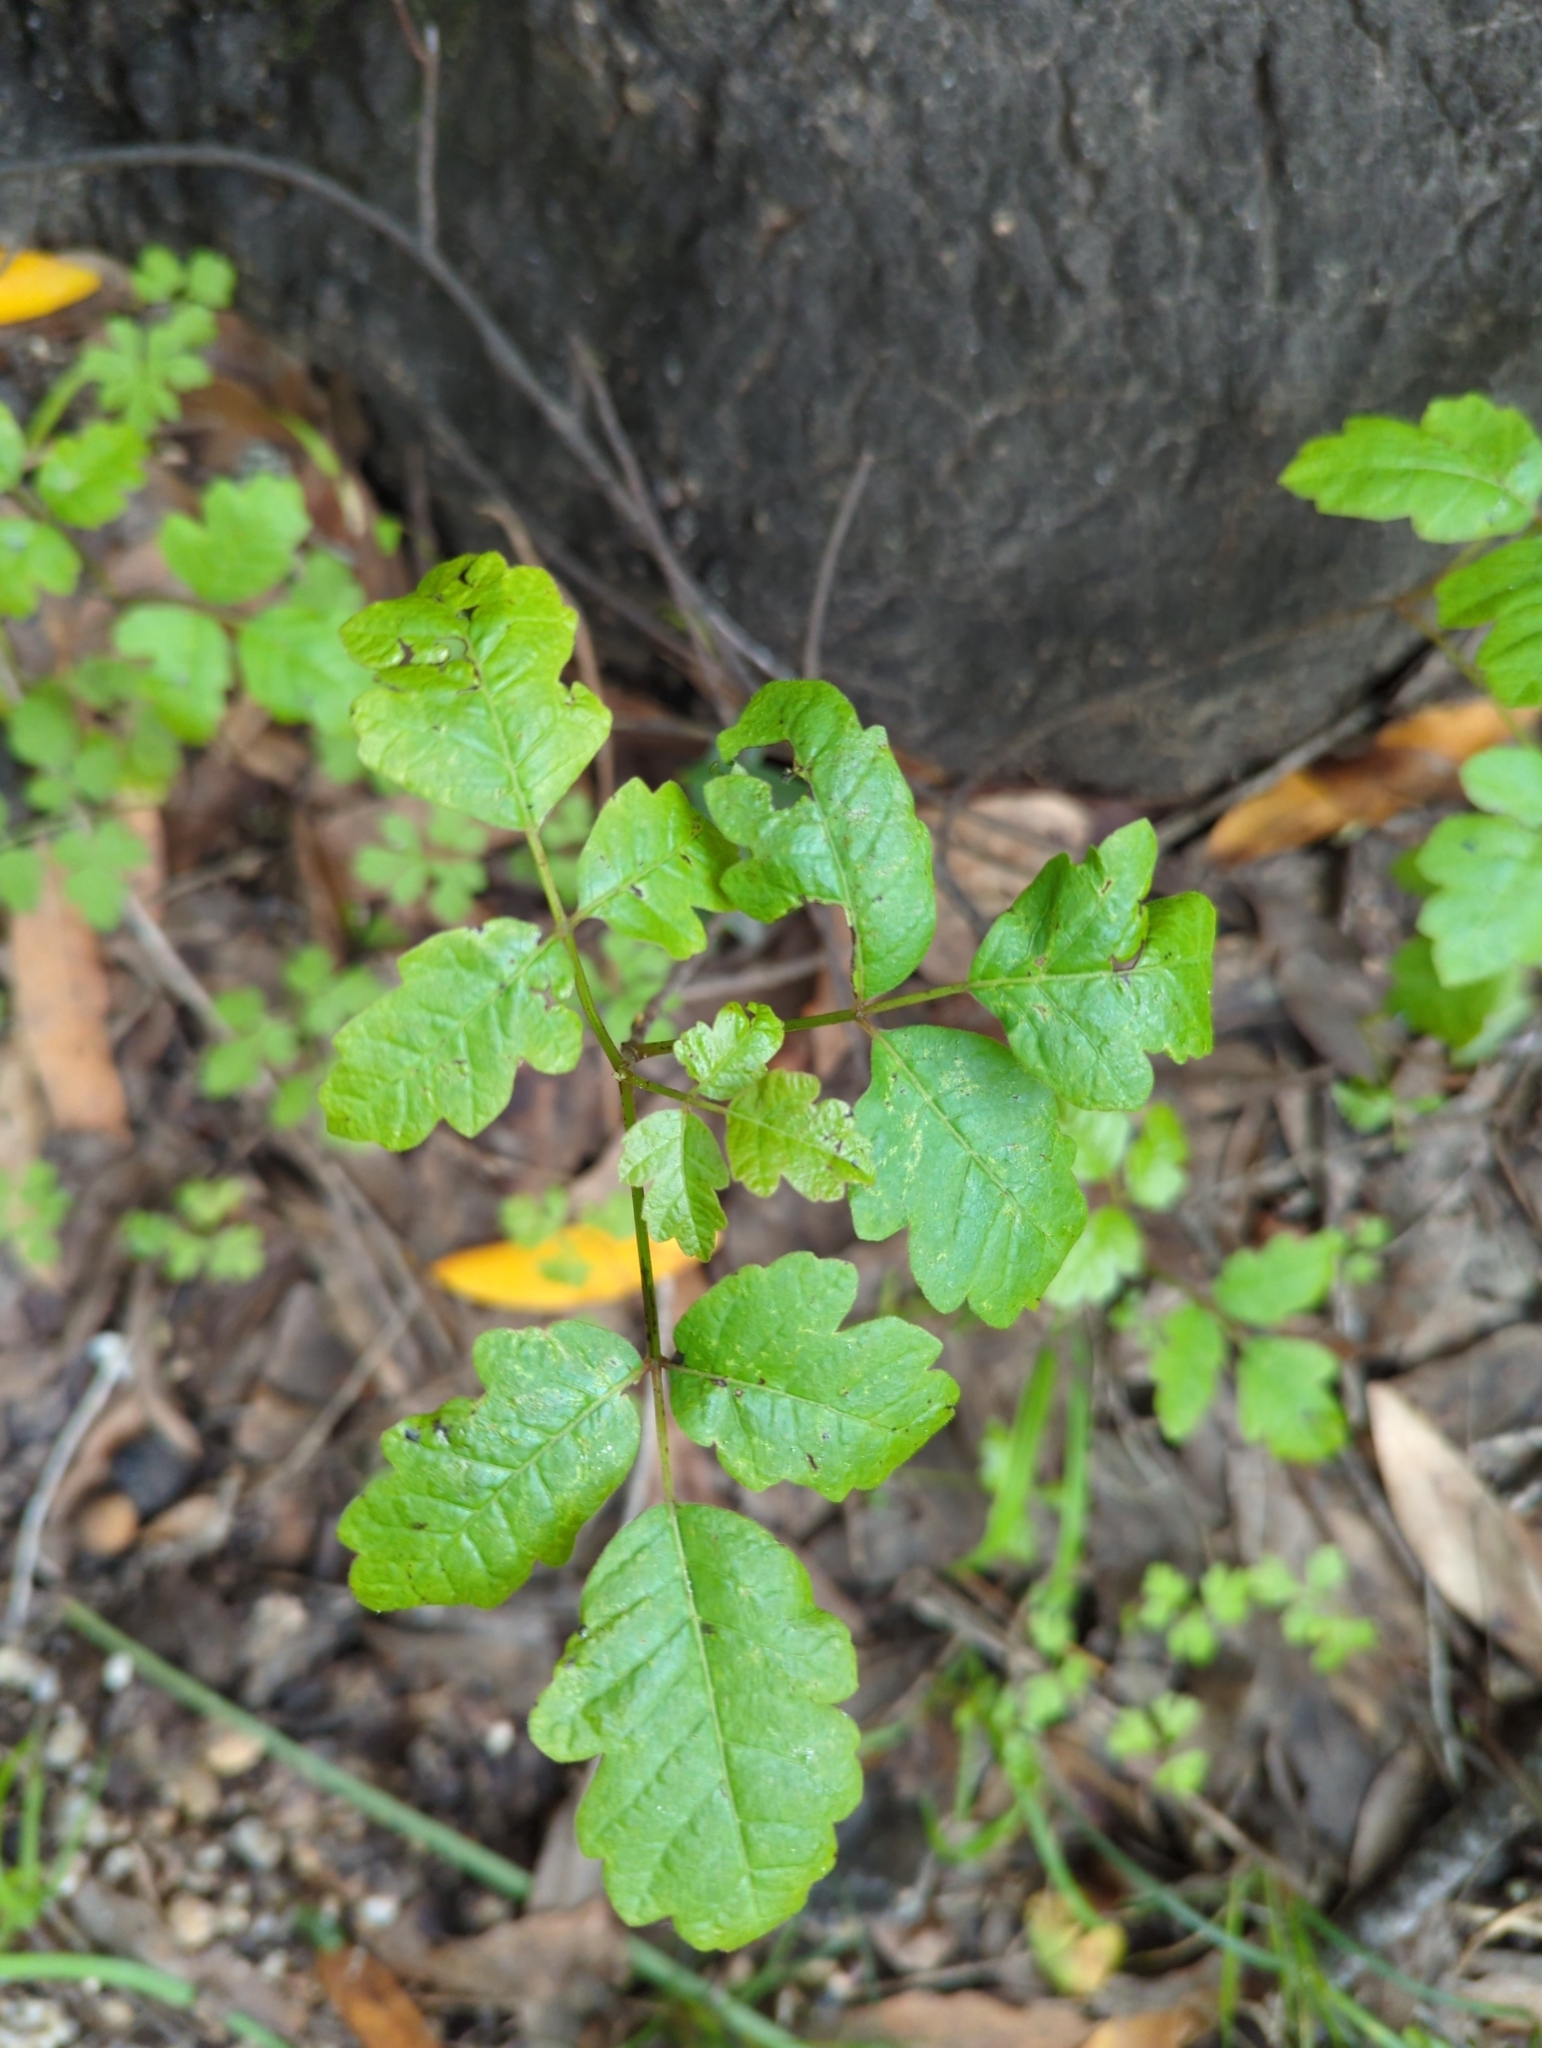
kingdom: Plantae
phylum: Tracheophyta
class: Magnoliopsida
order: Sapindales
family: Anacardiaceae
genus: Toxicodendron
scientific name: Toxicodendron diversilobum
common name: Pacific poison-oak
